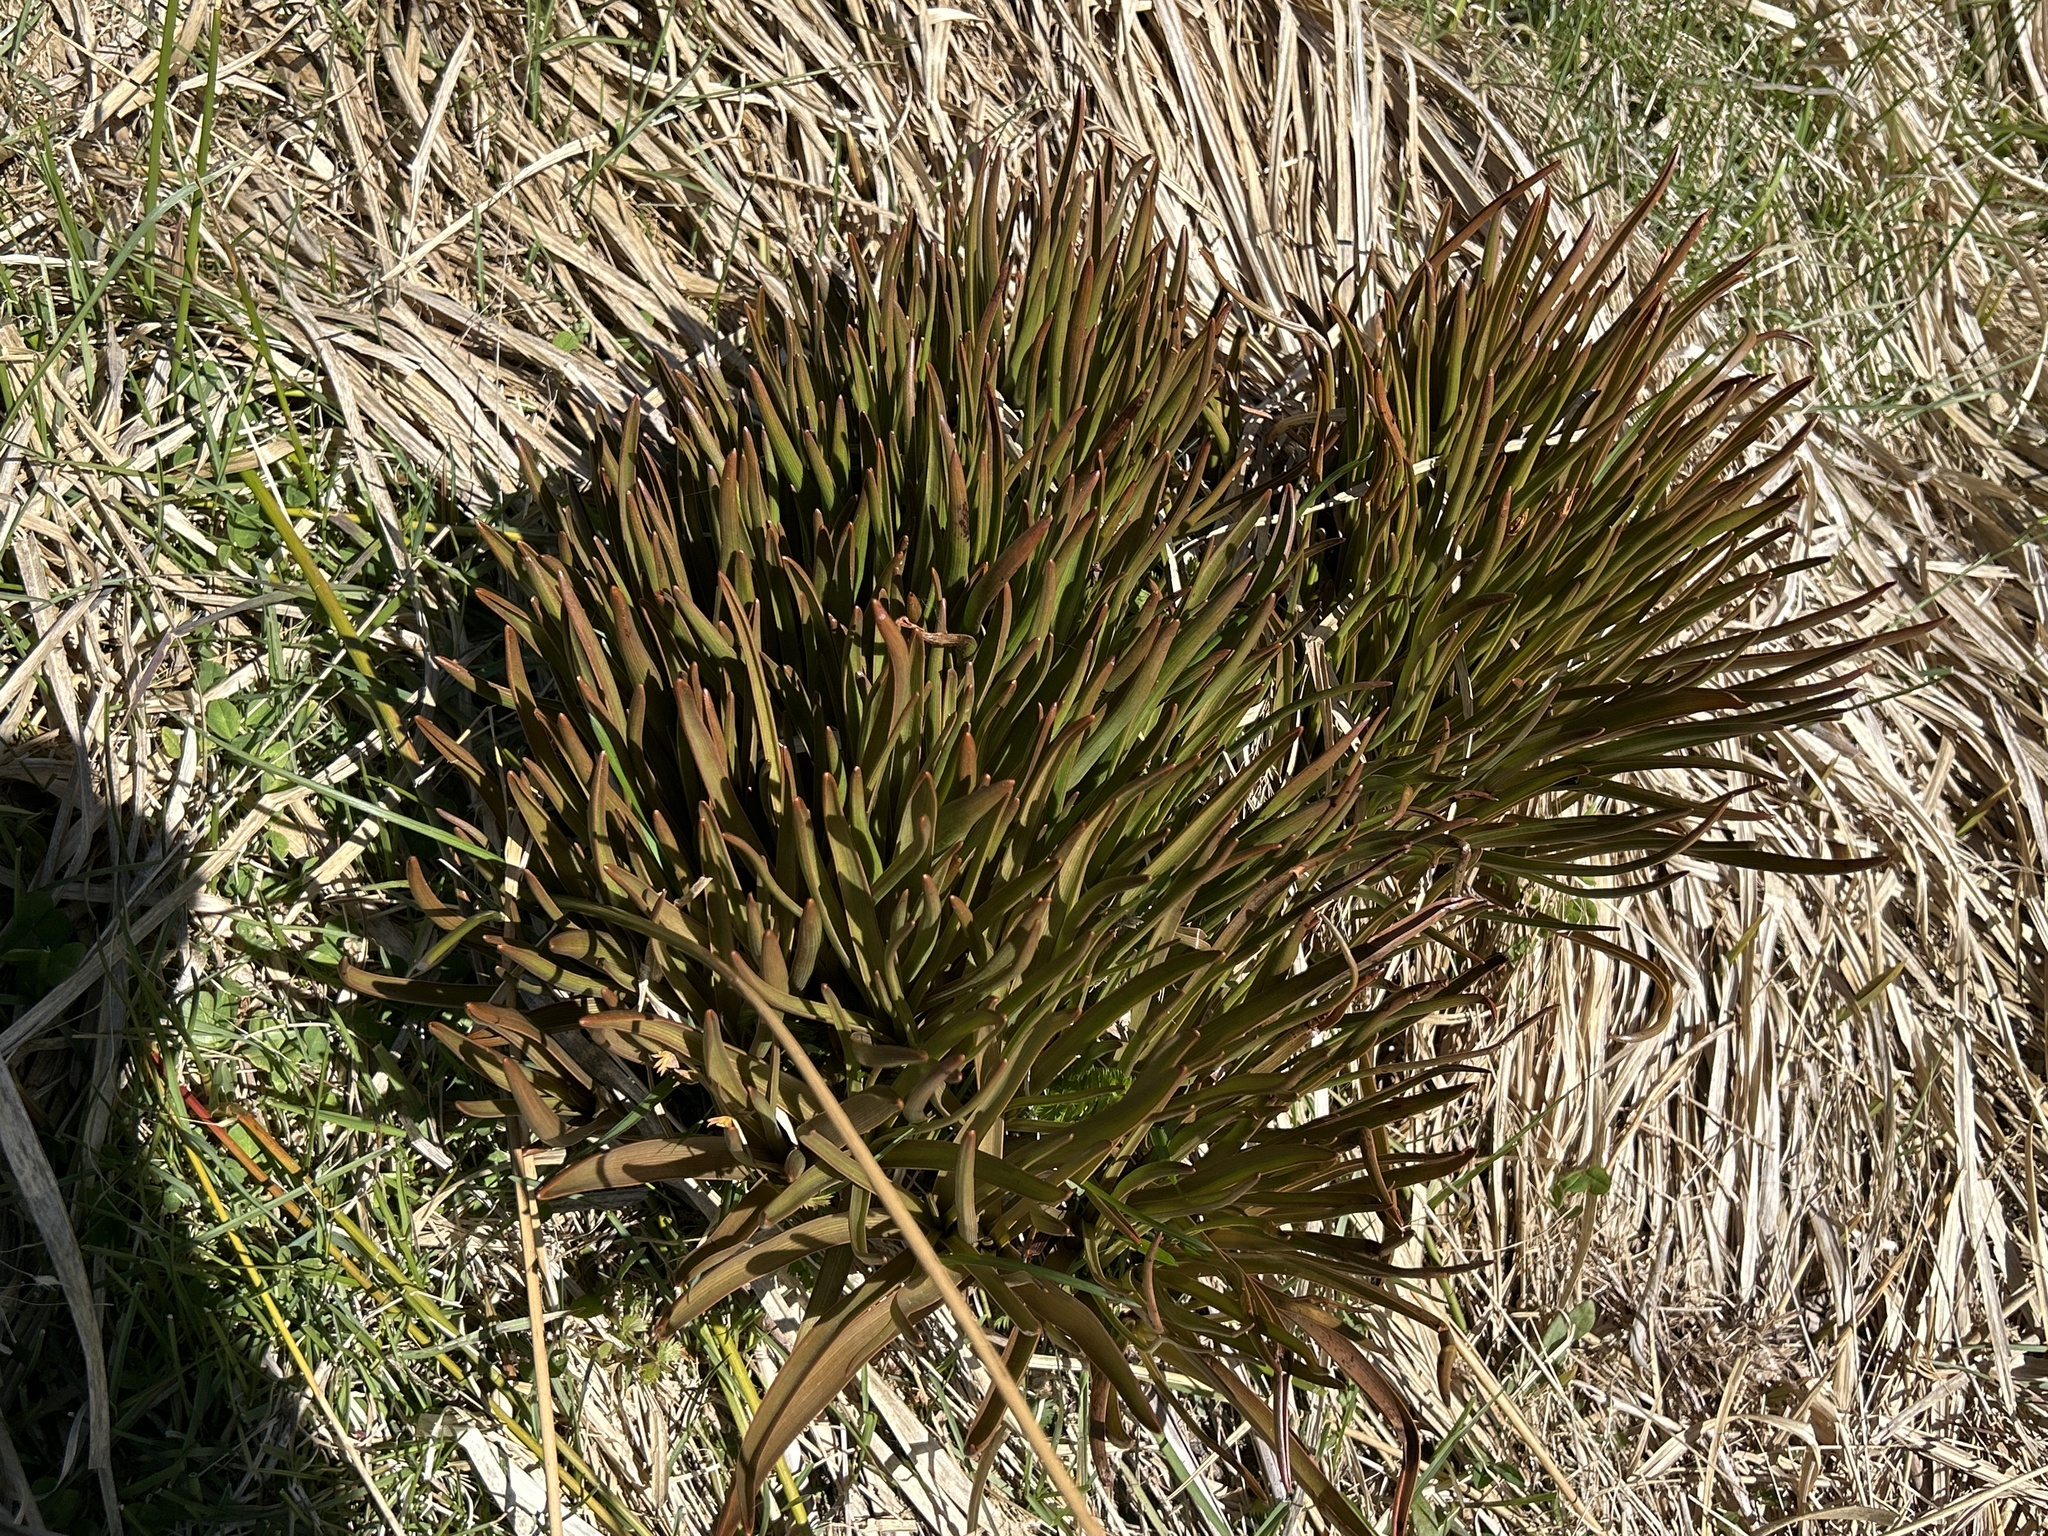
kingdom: Plantae
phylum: Tracheophyta
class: Liliopsida
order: Asparagales
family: Asphodelaceae
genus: Bulbinella
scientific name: Bulbinella hookeri
